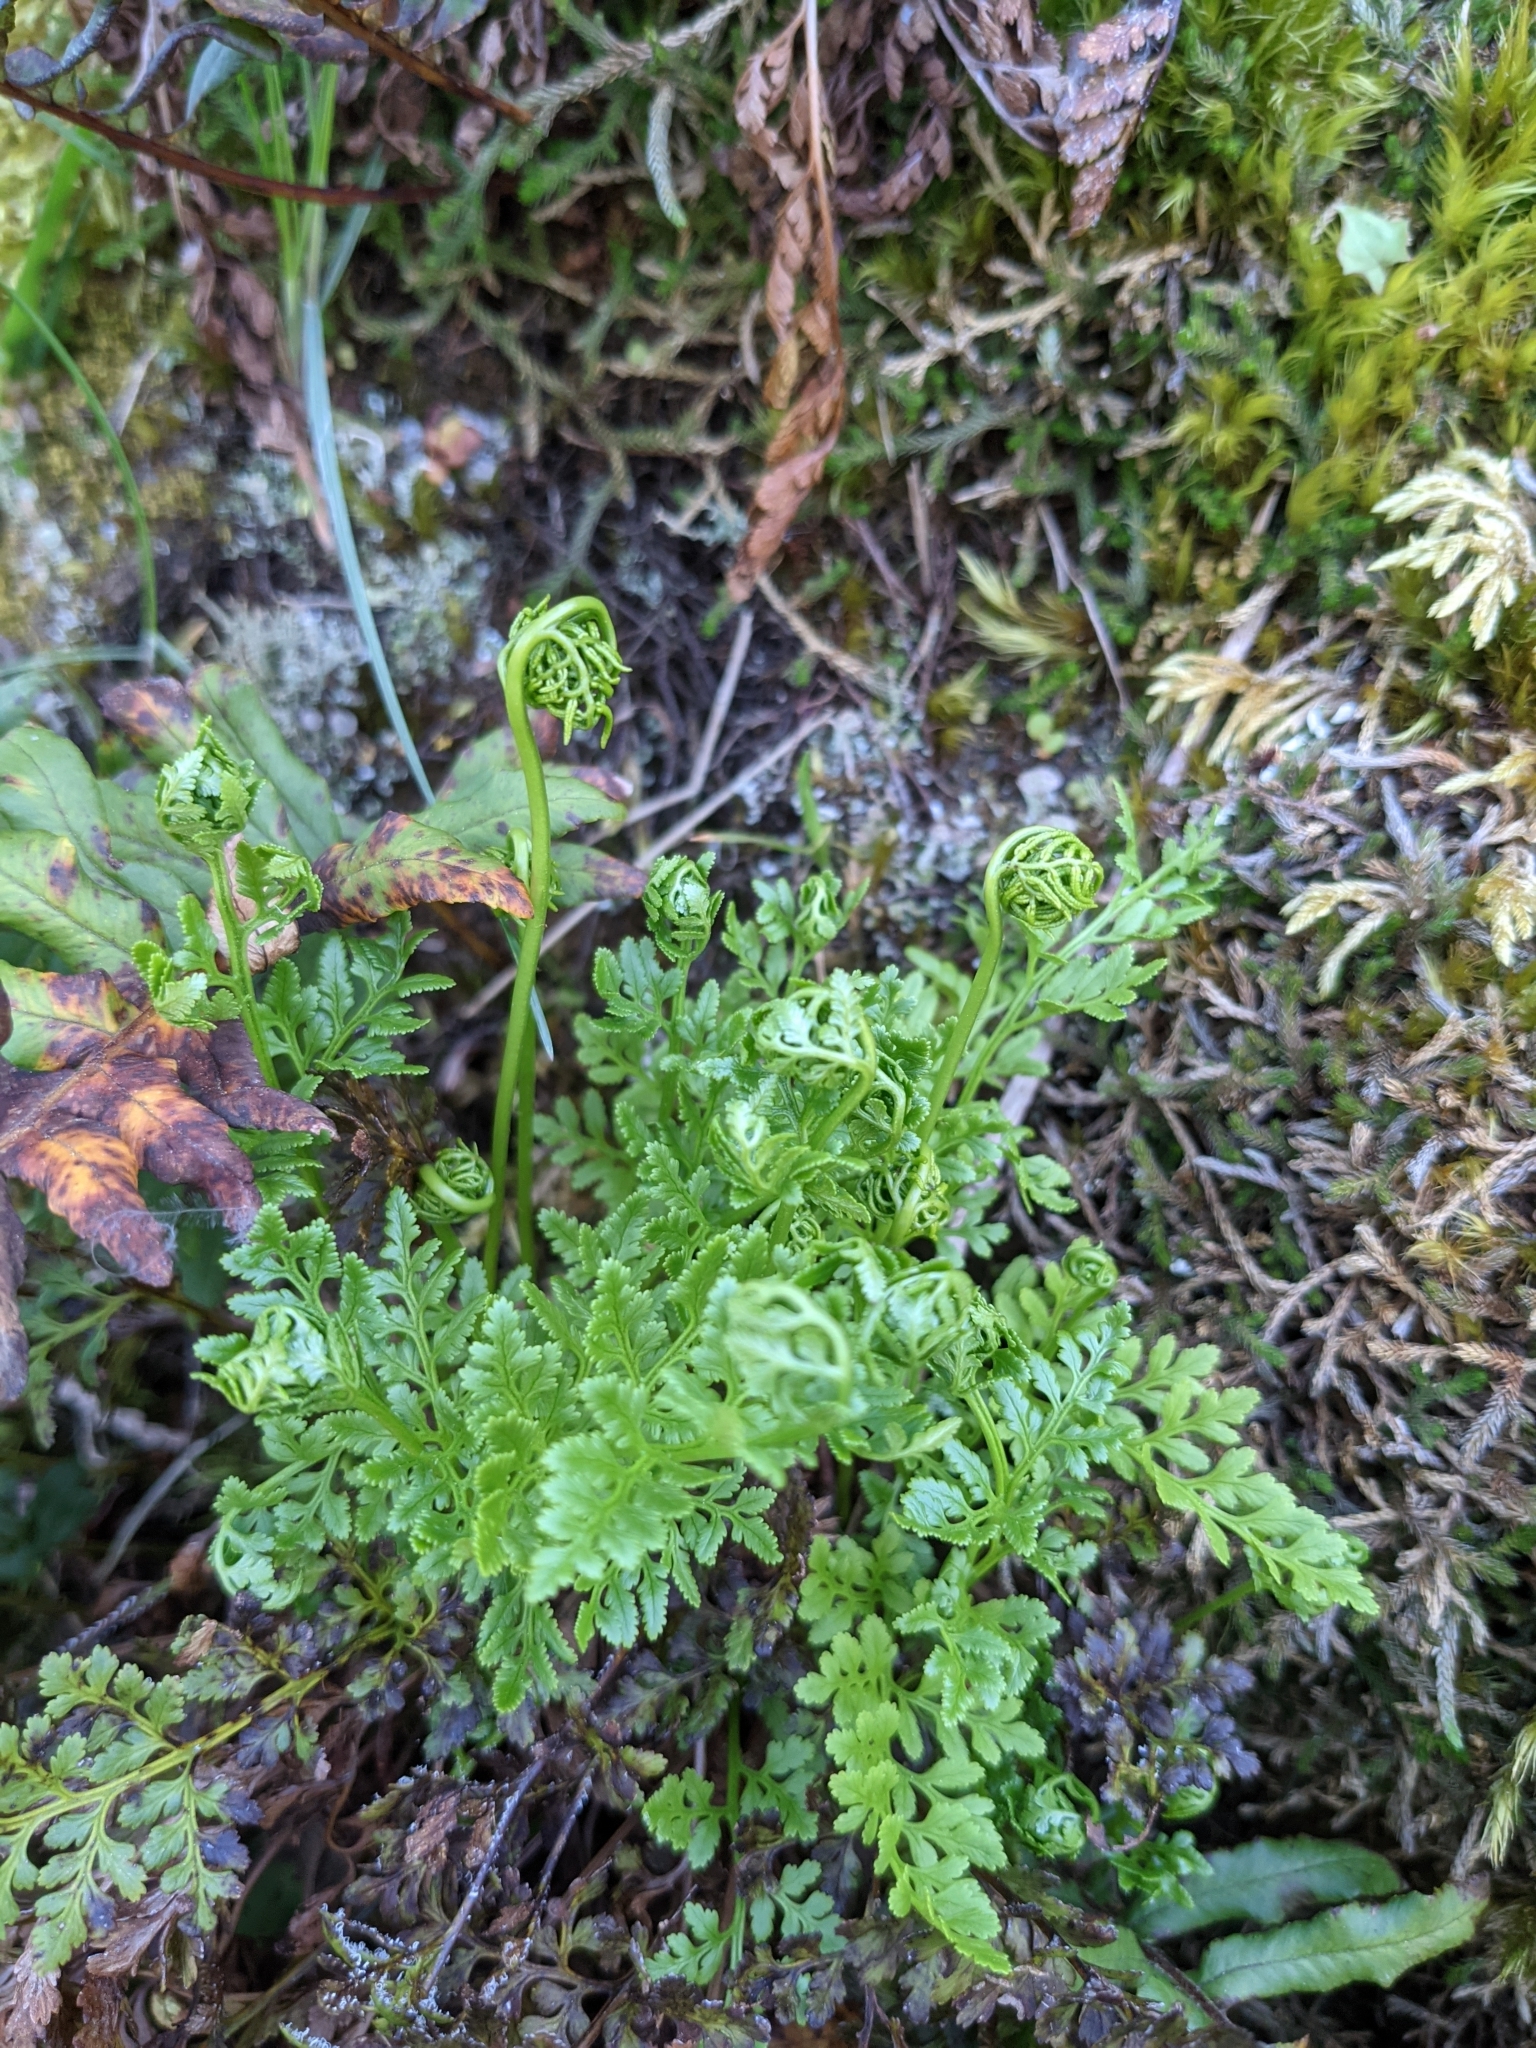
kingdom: Plantae
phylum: Tracheophyta
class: Polypodiopsida
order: Polypodiales
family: Pteridaceae
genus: Cryptogramma
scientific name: Cryptogramma acrostichoides
